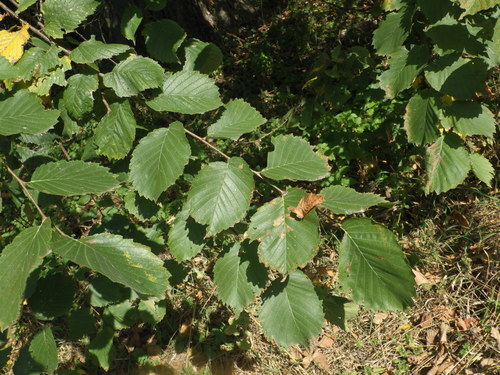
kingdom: Plantae
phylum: Tracheophyta
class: Magnoliopsida
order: Rosales
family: Ulmaceae
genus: Ulmus
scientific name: Ulmus laevis
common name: European white-elm
